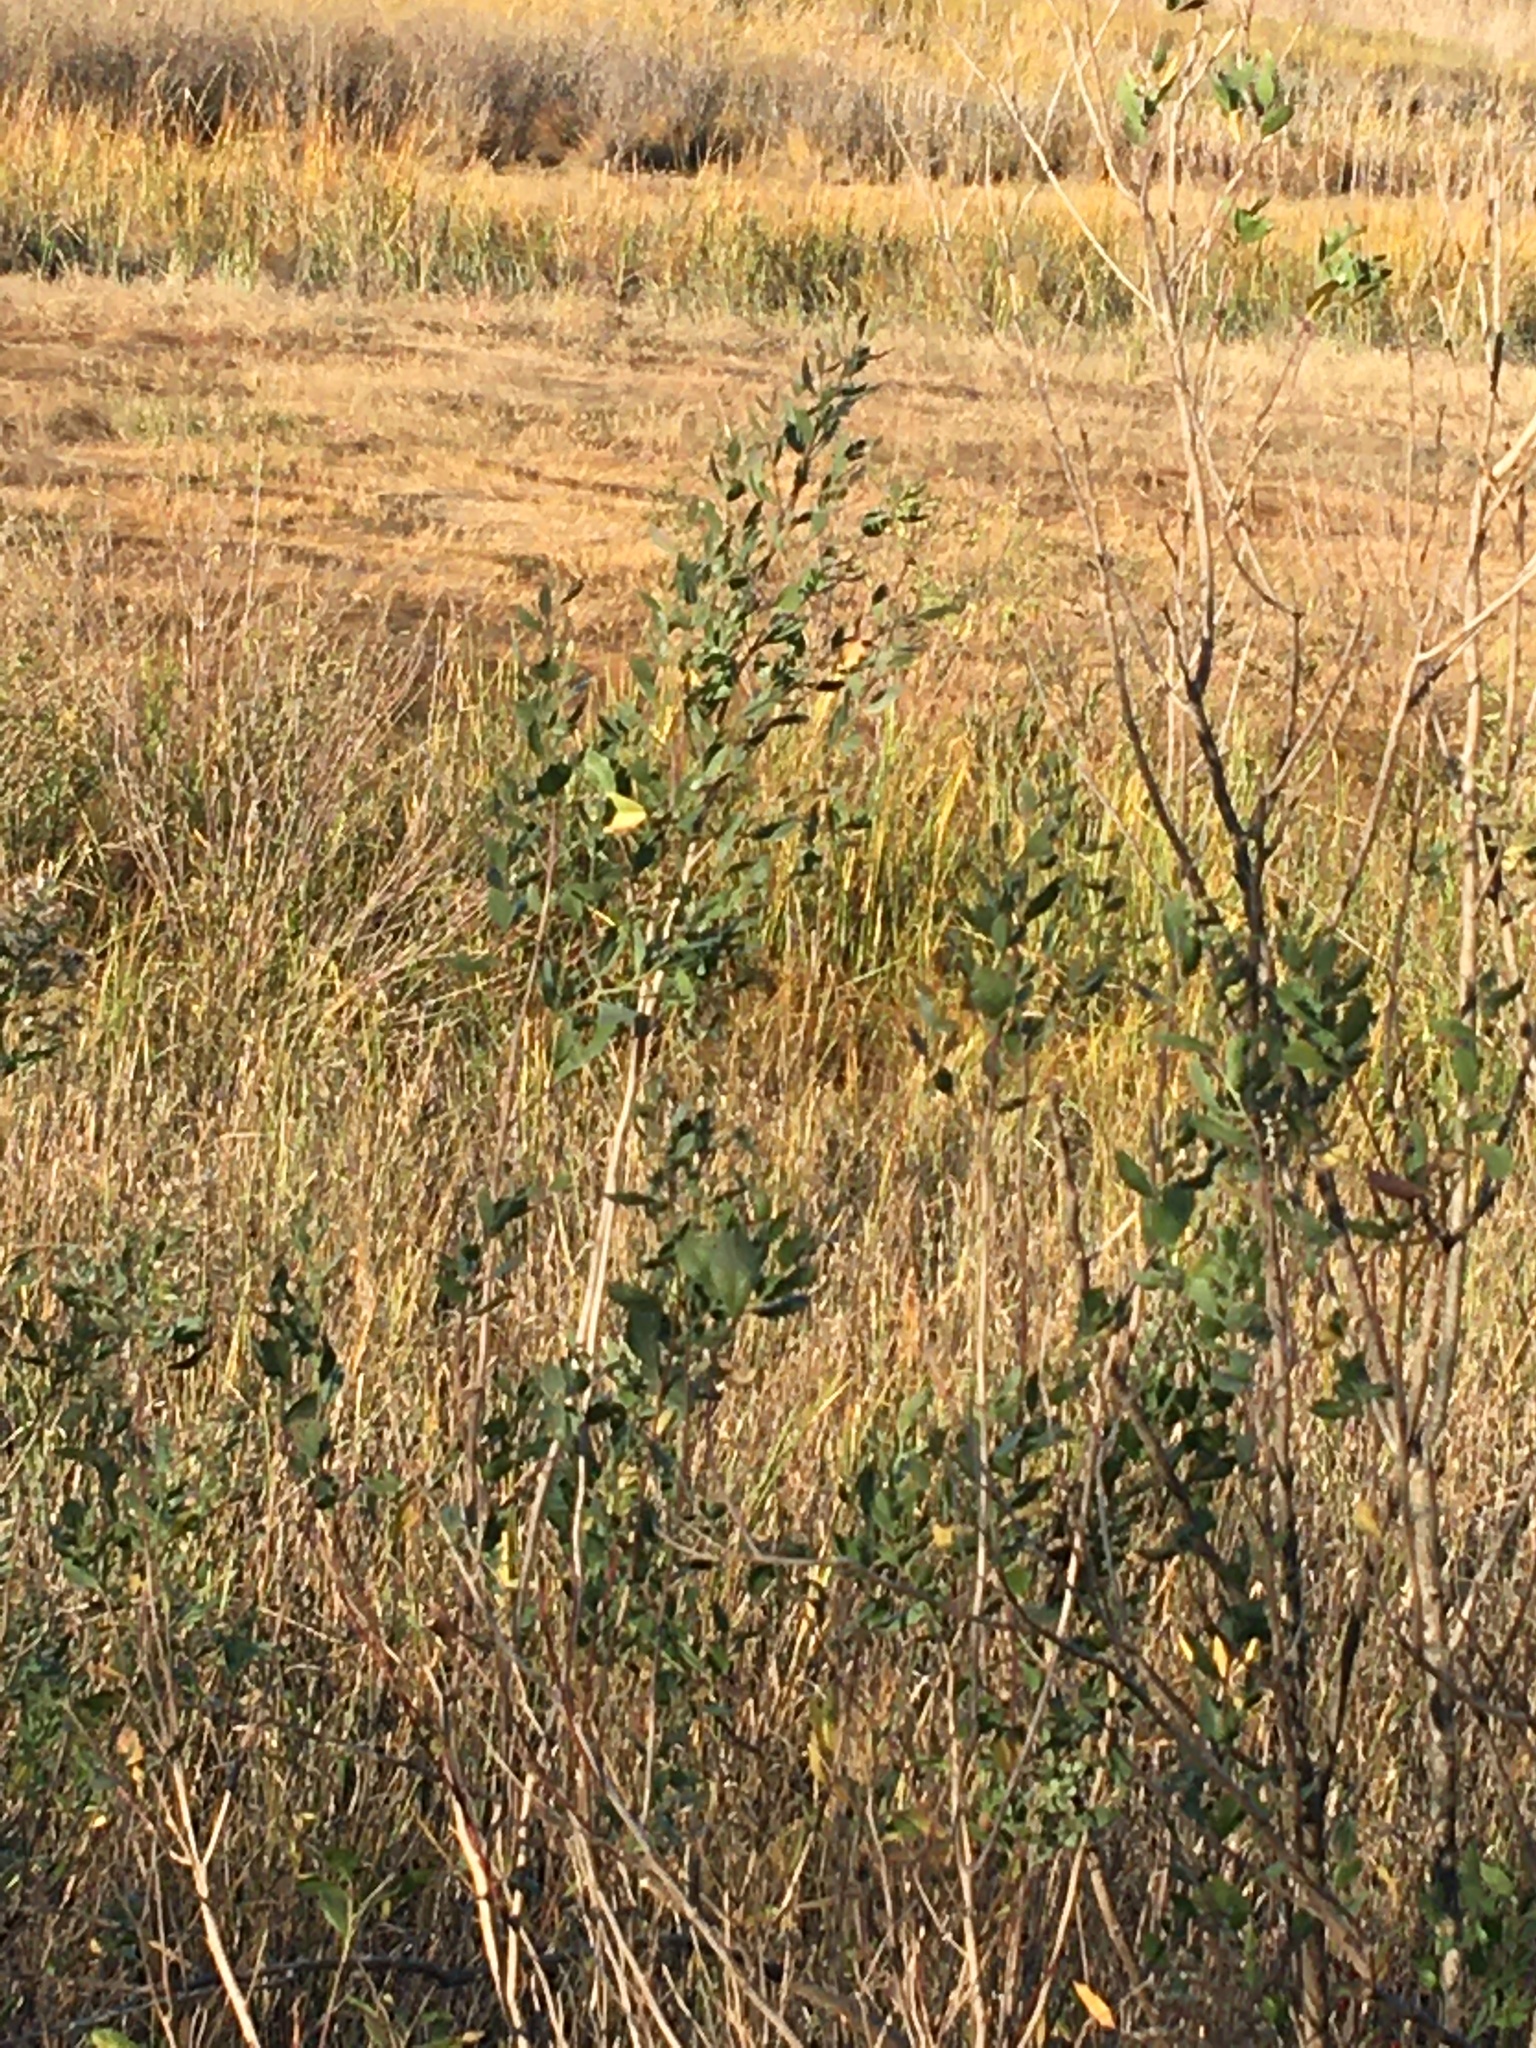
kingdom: Plantae
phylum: Tracheophyta
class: Magnoliopsida
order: Asterales
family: Asteraceae
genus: Baccharis
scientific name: Baccharis halimifolia
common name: Eastern baccharis
